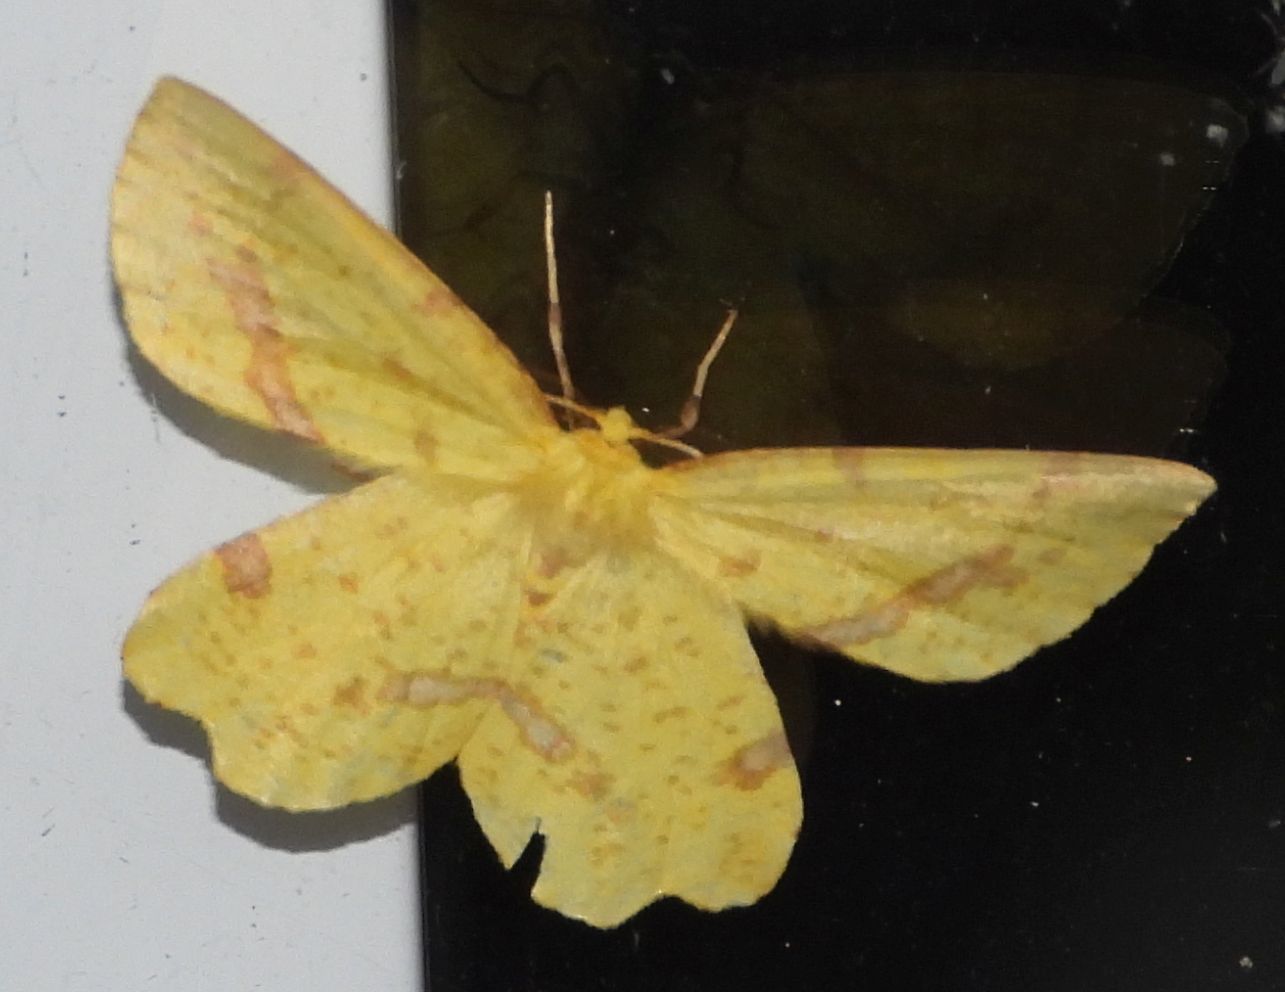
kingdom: Animalia
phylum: Arthropoda
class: Insecta
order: Lepidoptera
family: Geometridae
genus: Xanthotype
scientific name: Xanthotype
